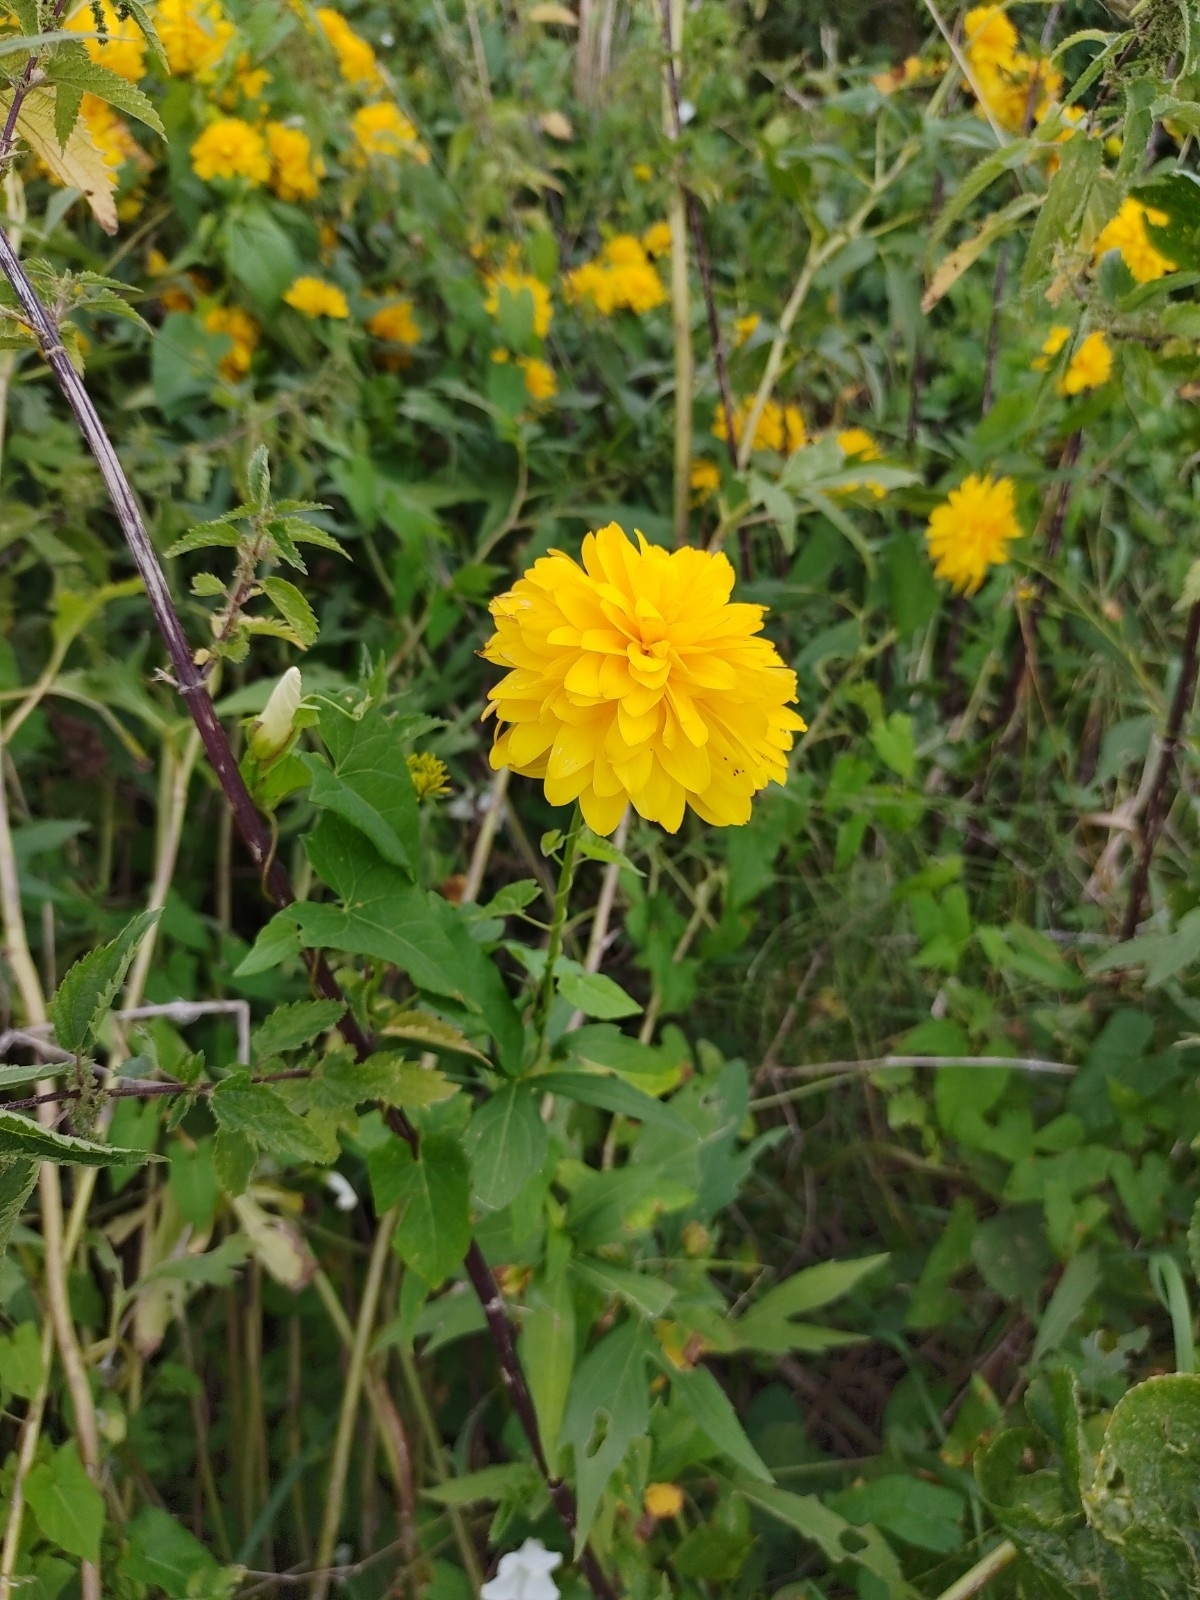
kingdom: Plantae
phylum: Tracheophyta
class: Magnoliopsida
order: Asterales
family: Asteraceae
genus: Rudbeckia
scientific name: Rudbeckia laciniata
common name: Coneflower
